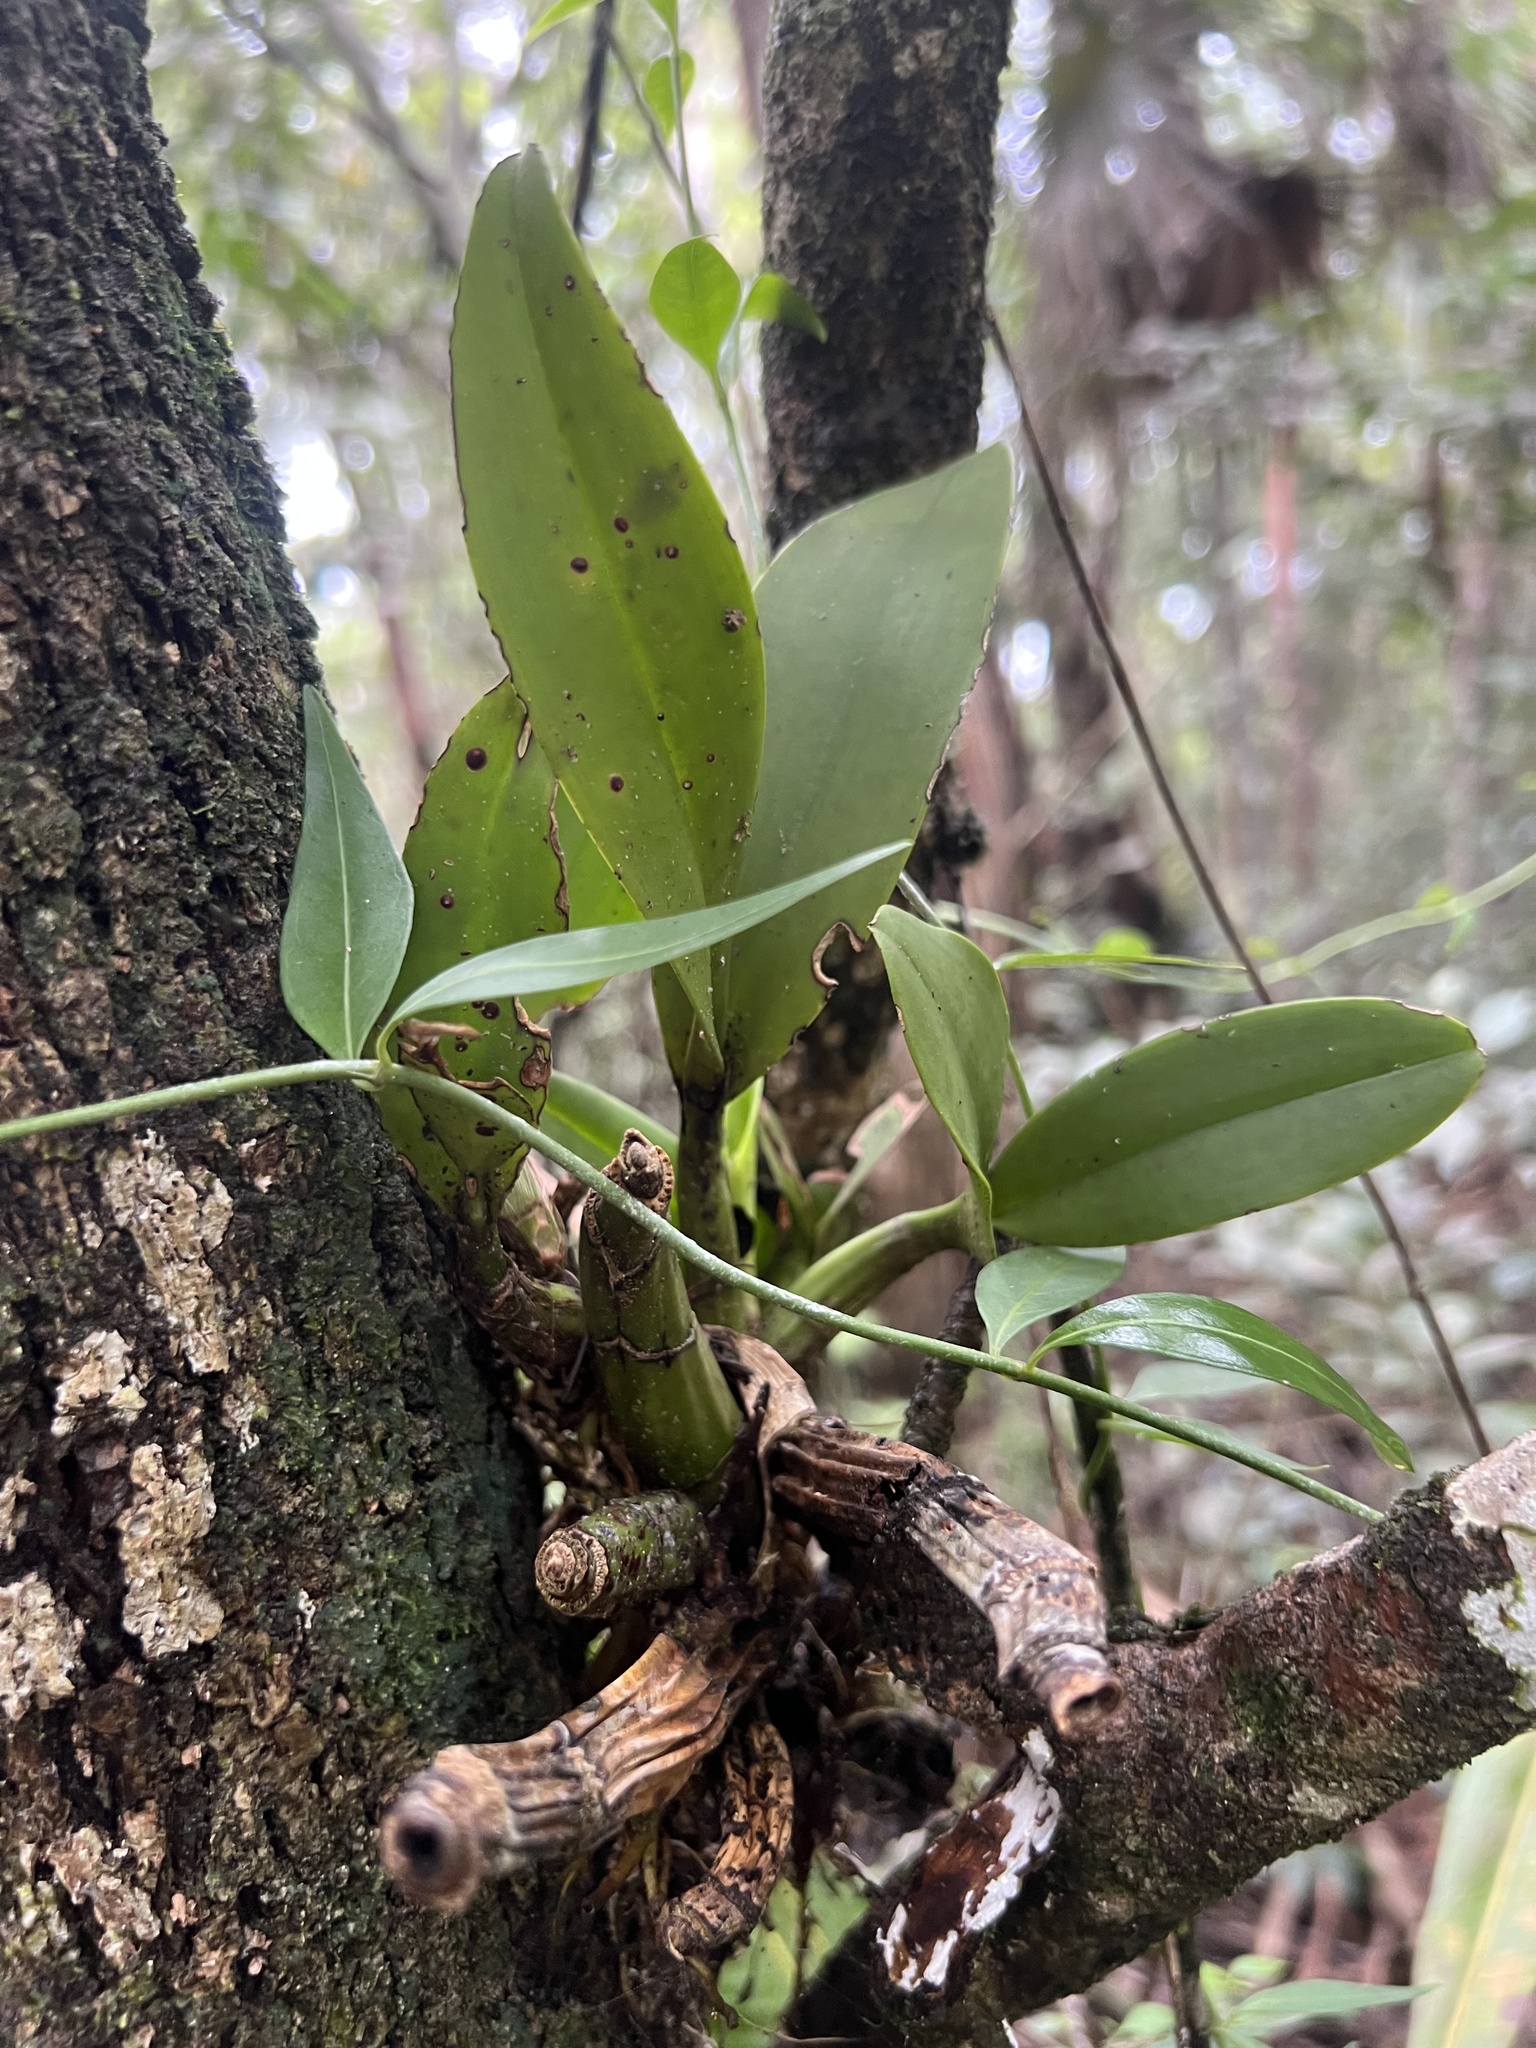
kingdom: Plantae
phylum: Tracheophyta
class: Magnoliopsida
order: Gentianales
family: Rubiaceae
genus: Chiococca
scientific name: Chiococca alba
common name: Snowberry
